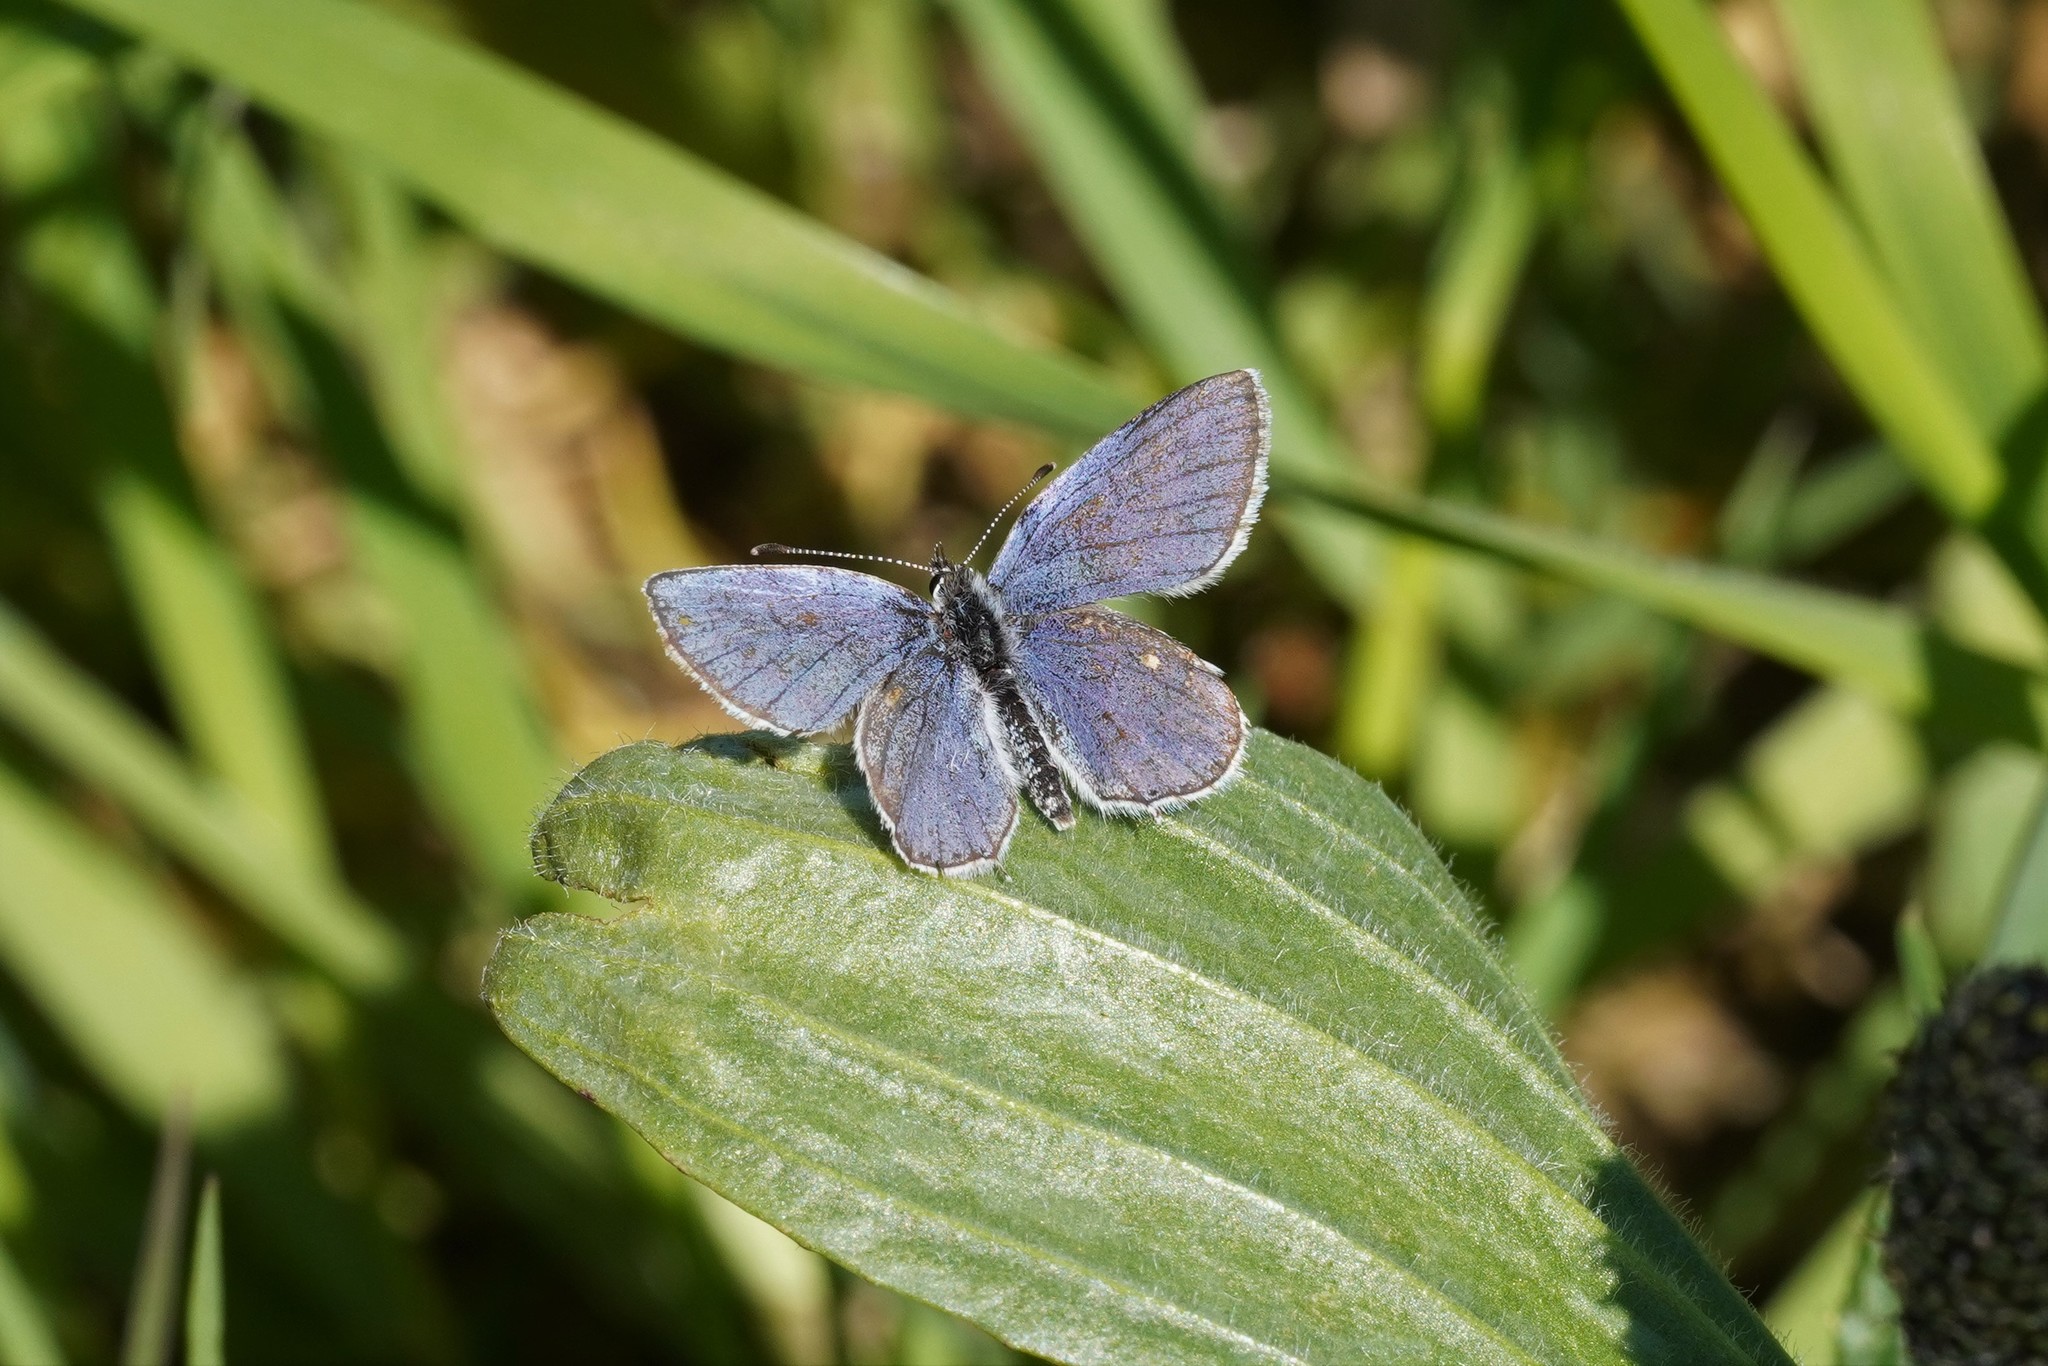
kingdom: Animalia
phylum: Arthropoda
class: Insecta
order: Lepidoptera
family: Lycaenidae
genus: Elkalyce
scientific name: Elkalyce argiades
